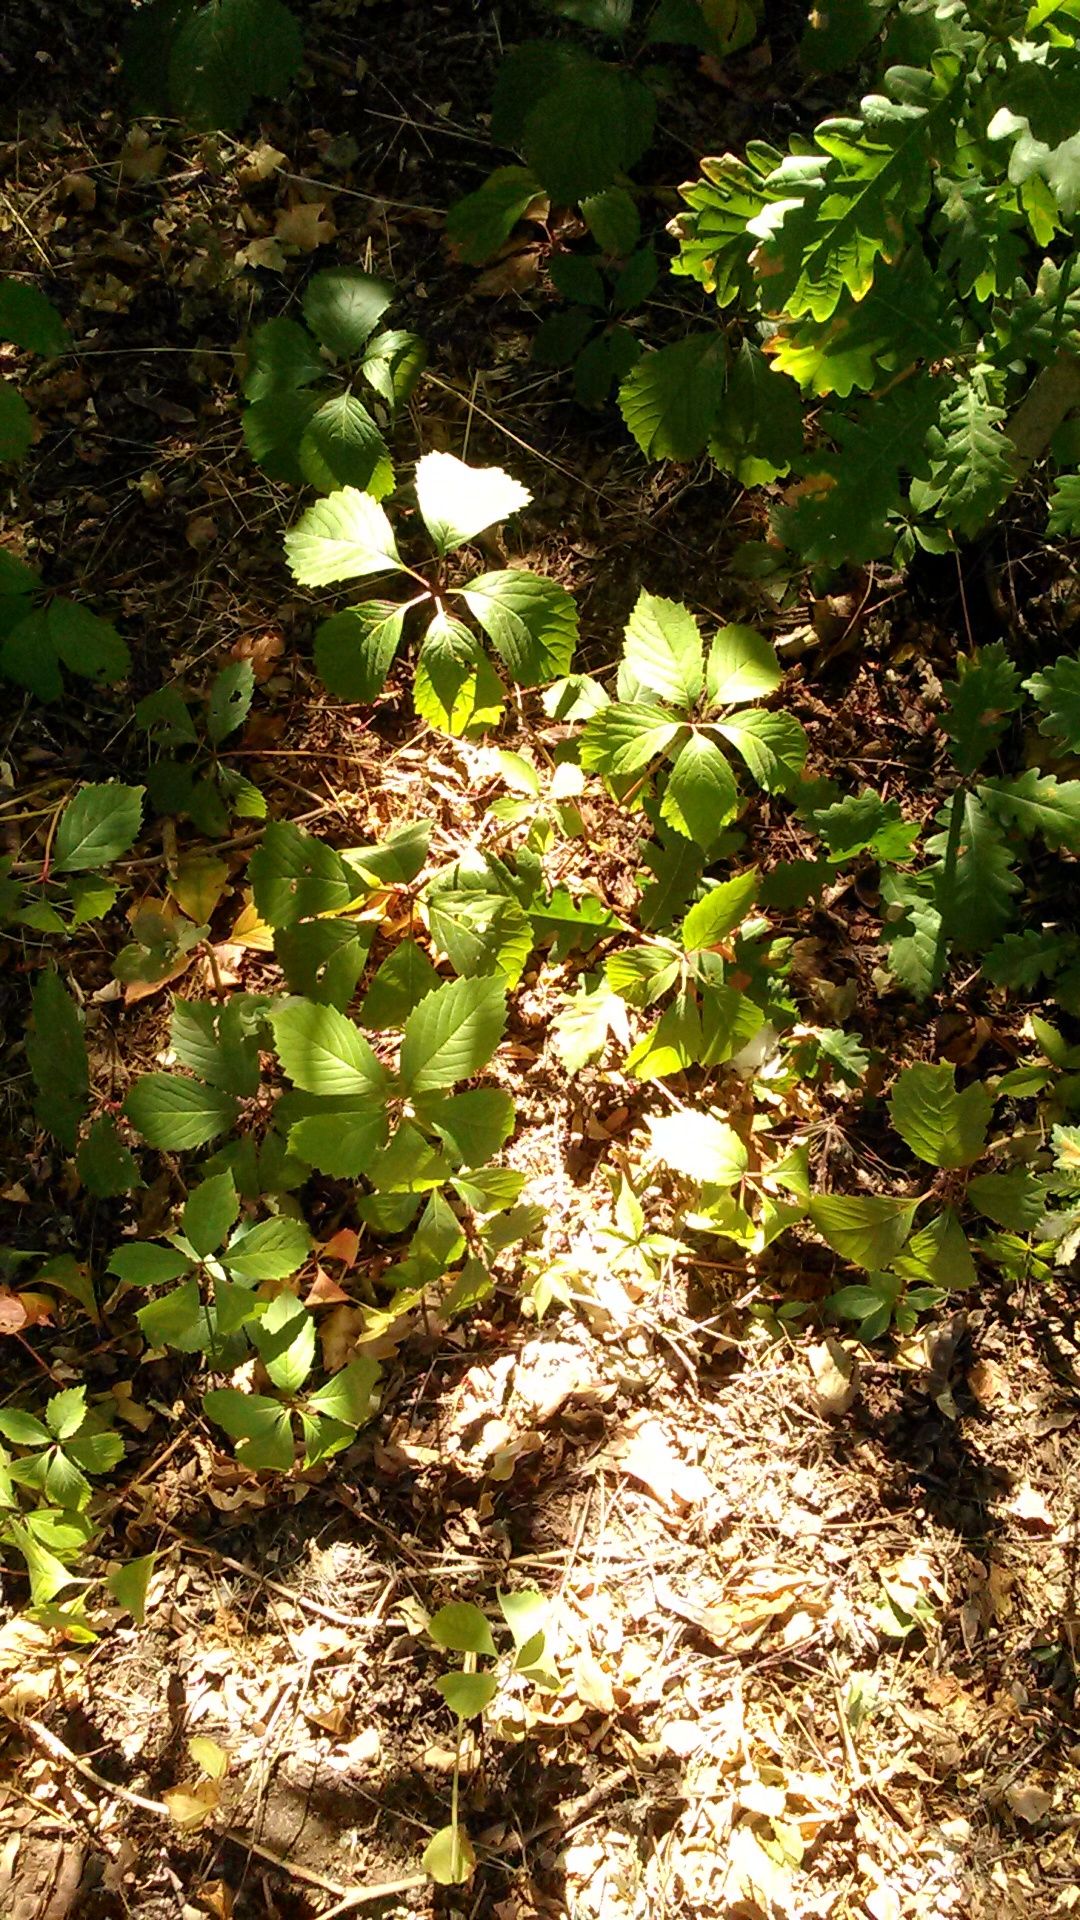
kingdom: Plantae
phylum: Tracheophyta
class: Magnoliopsida
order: Vitales
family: Vitaceae
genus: Parthenocissus
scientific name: Parthenocissus inserta
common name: False virginia-creeper
